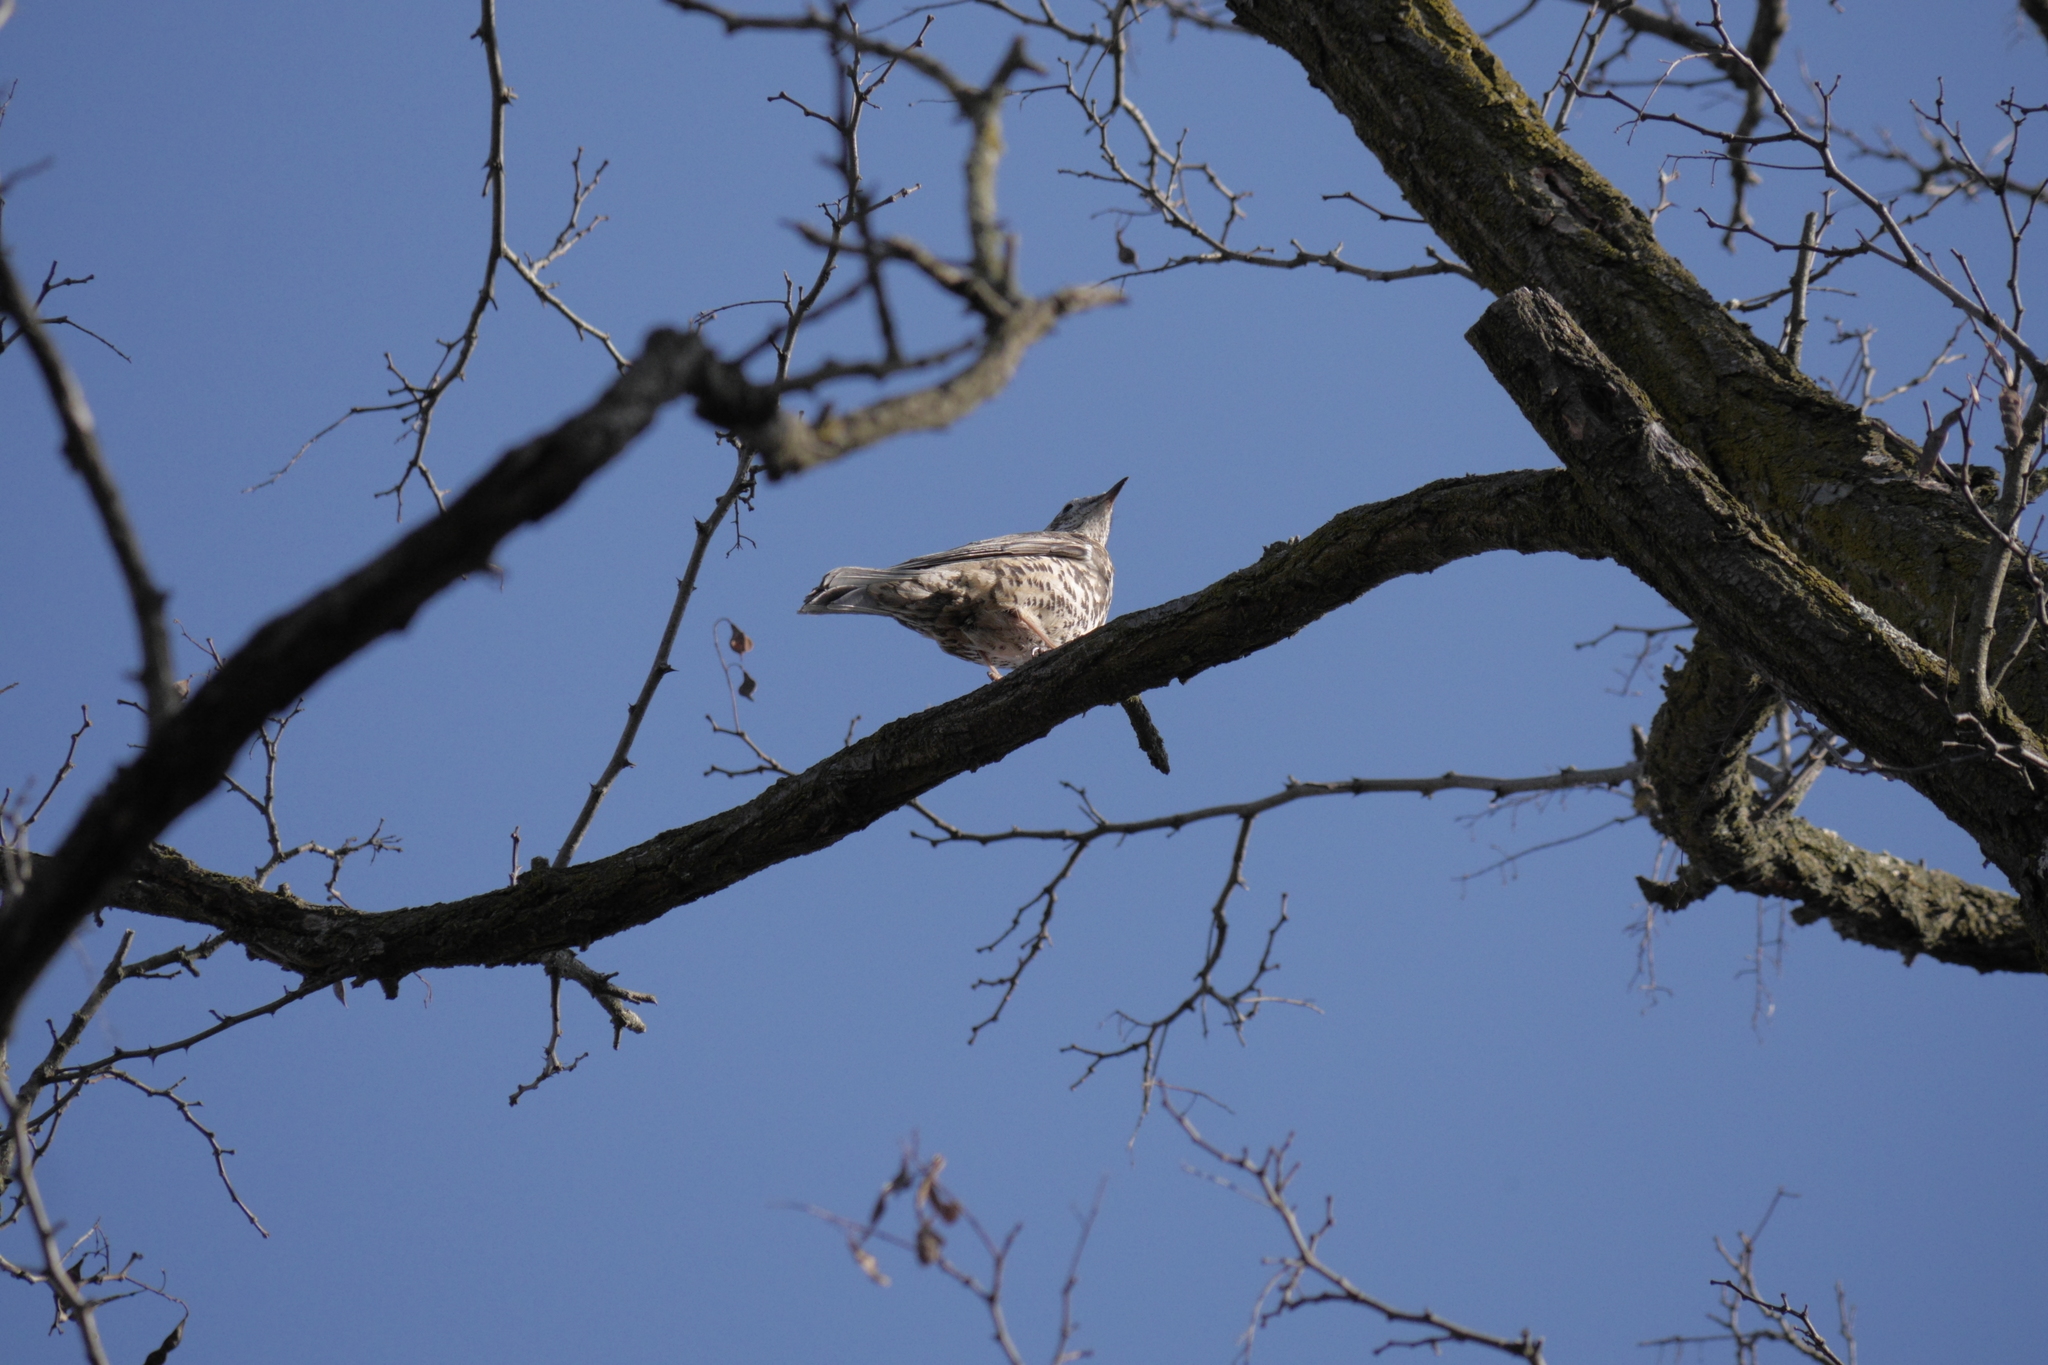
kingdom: Animalia
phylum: Chordata
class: Aves
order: Passeriformes
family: Turdidae
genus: Turdus
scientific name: Turdus viscivorus
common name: Mistle thrush
